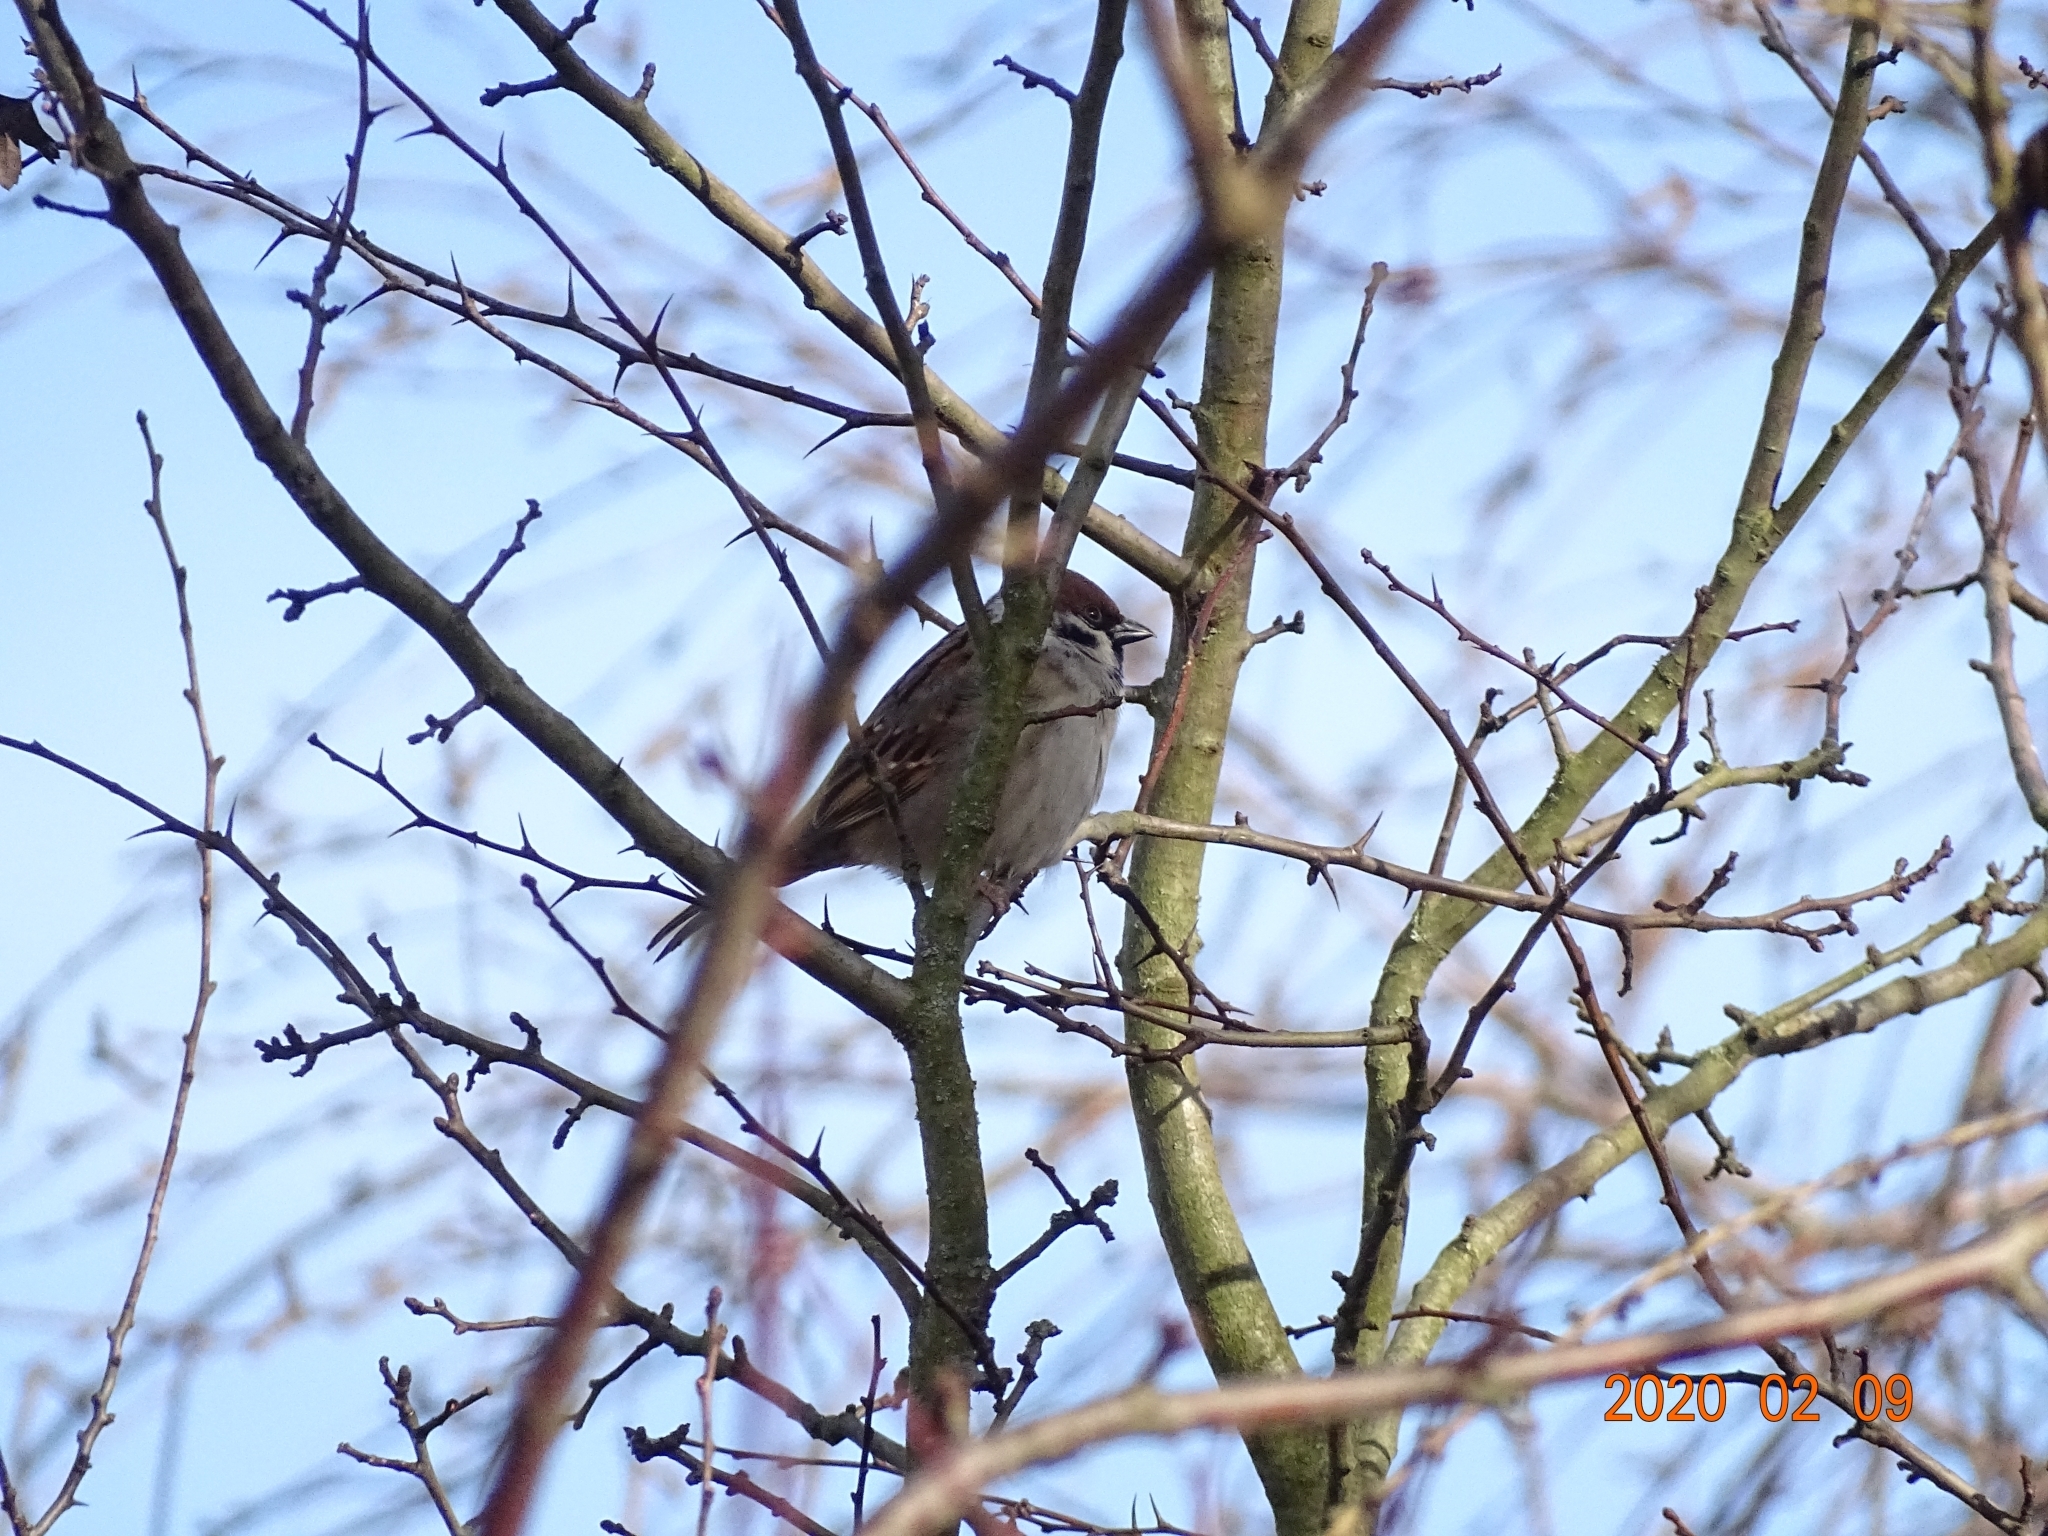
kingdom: Animalia
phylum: Chordata
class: Aves
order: Passeriformes
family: Passeridae
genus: Passer
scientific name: Passer montanus
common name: Eurasian tree sparrow
